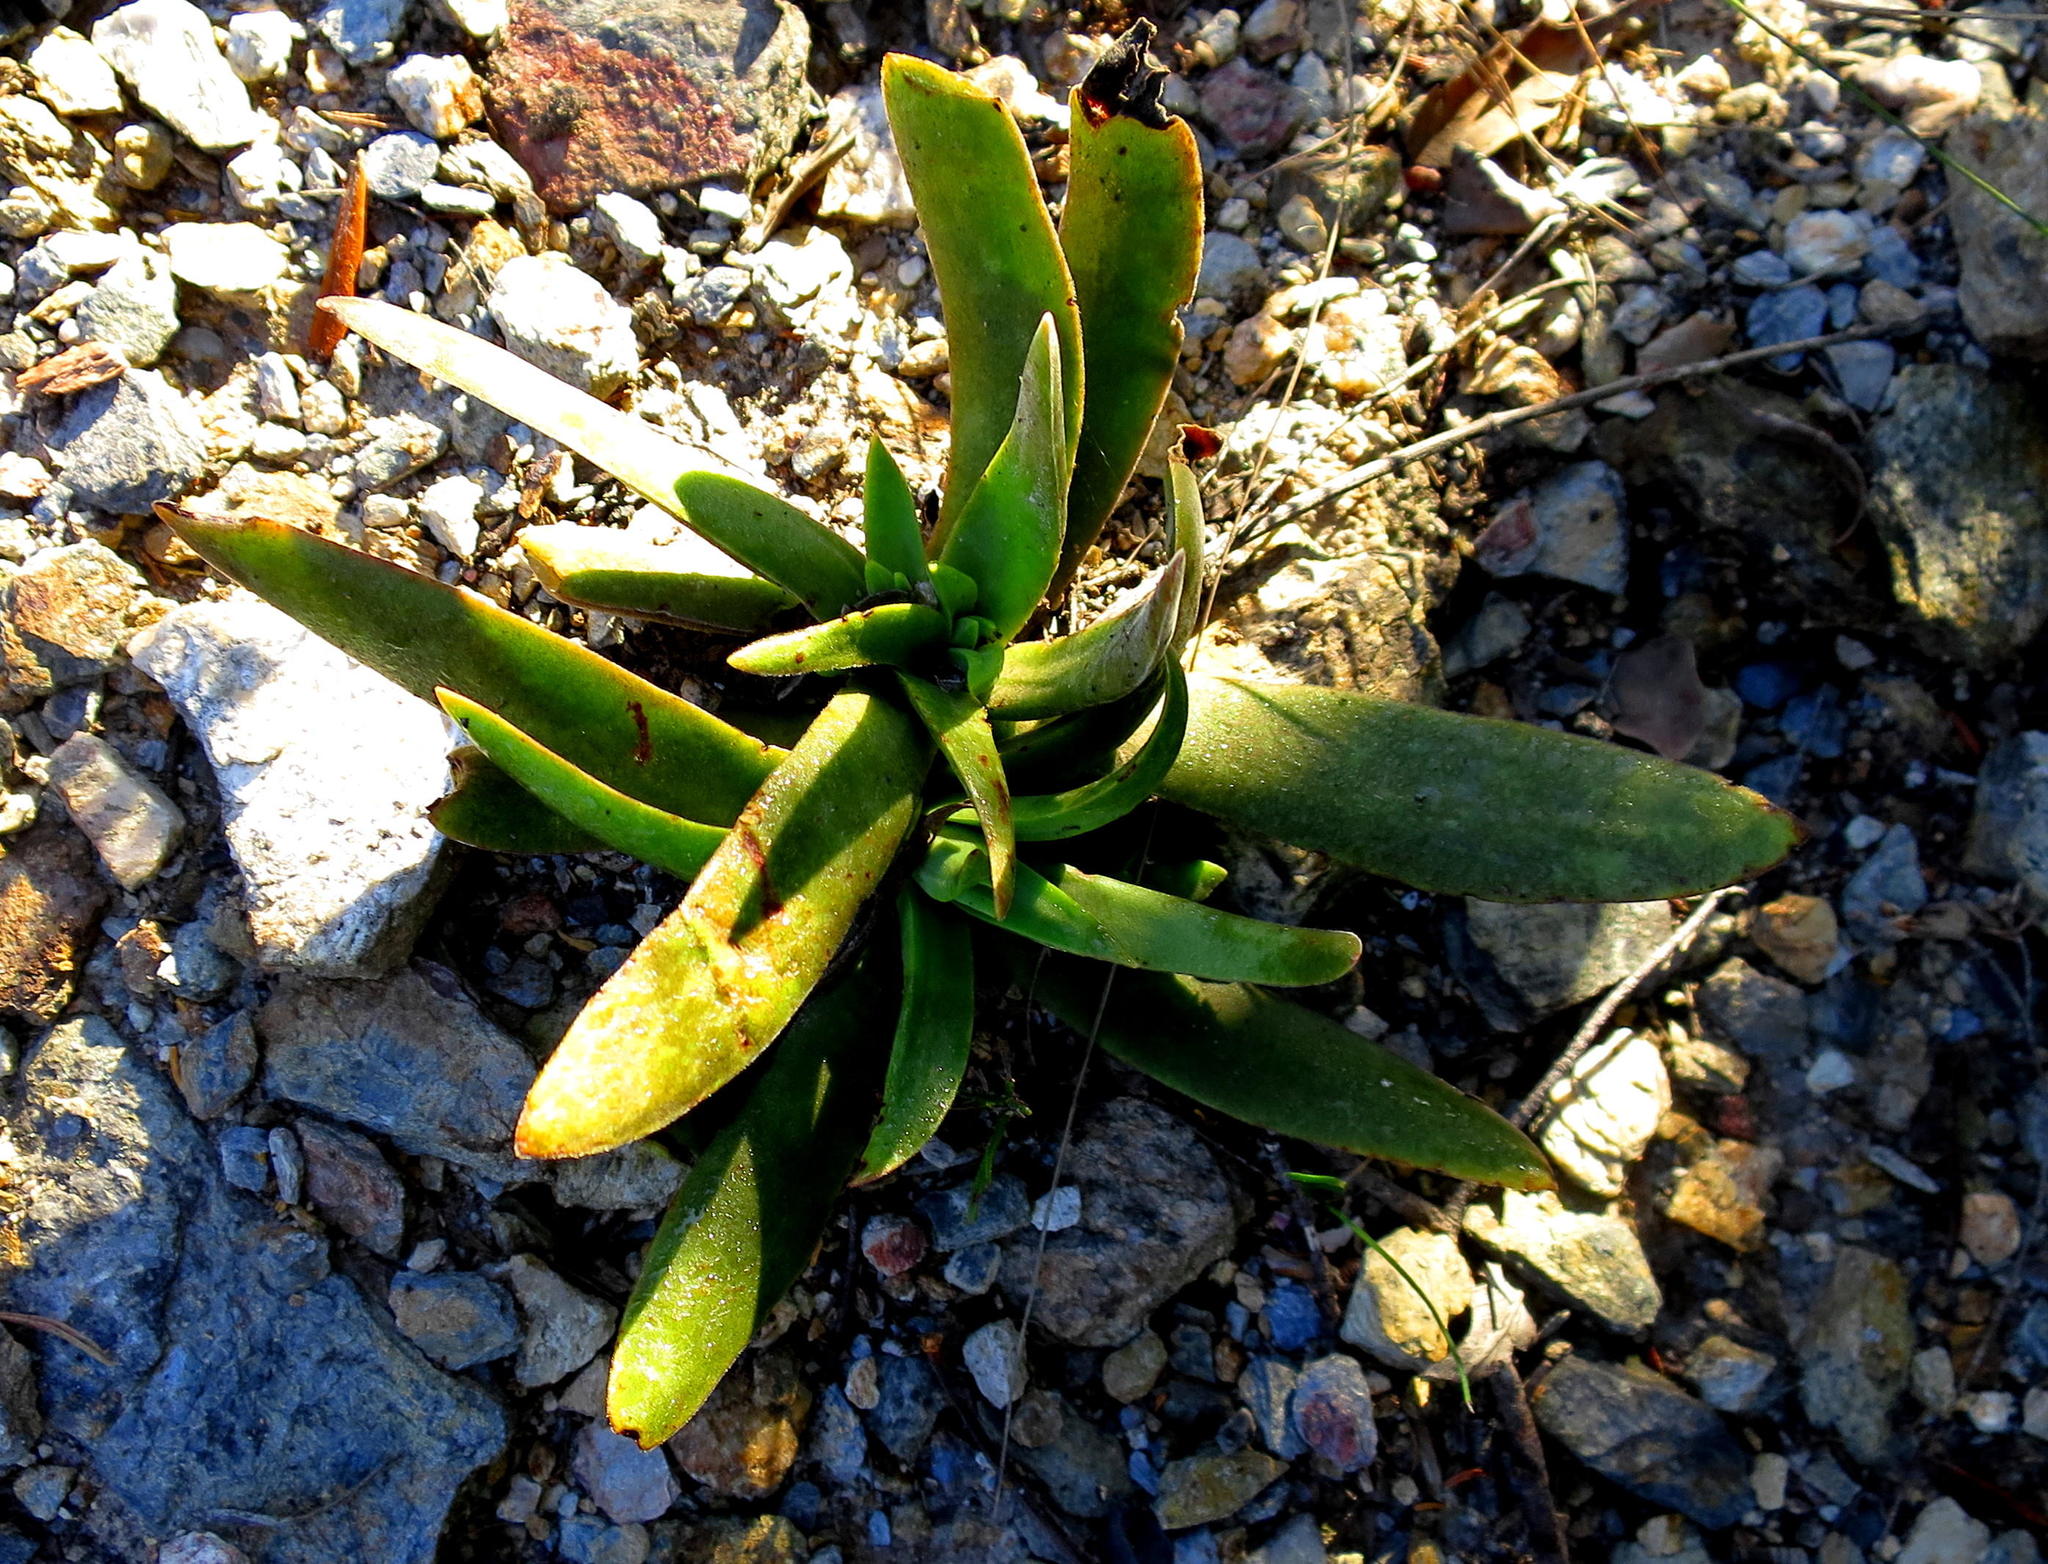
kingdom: Plantae
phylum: Tracheophyta
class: Magnoliopsida
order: Saxifragales
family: Crassulaceae
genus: Crassula
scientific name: Crassula nudicaulis
